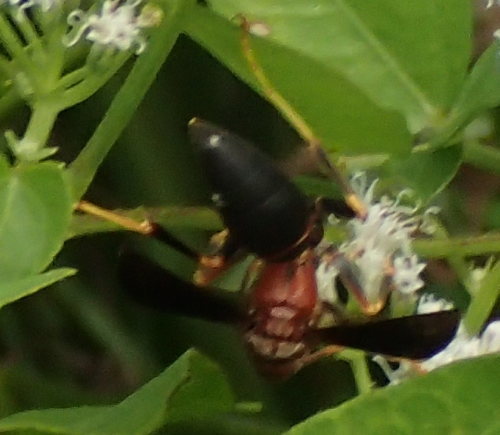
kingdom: Animalia
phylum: Arthropoda
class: Insecta
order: Hymenoptera
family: Eumenidae
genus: Polistes
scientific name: Polistes metricus
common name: Metric paper wasp
